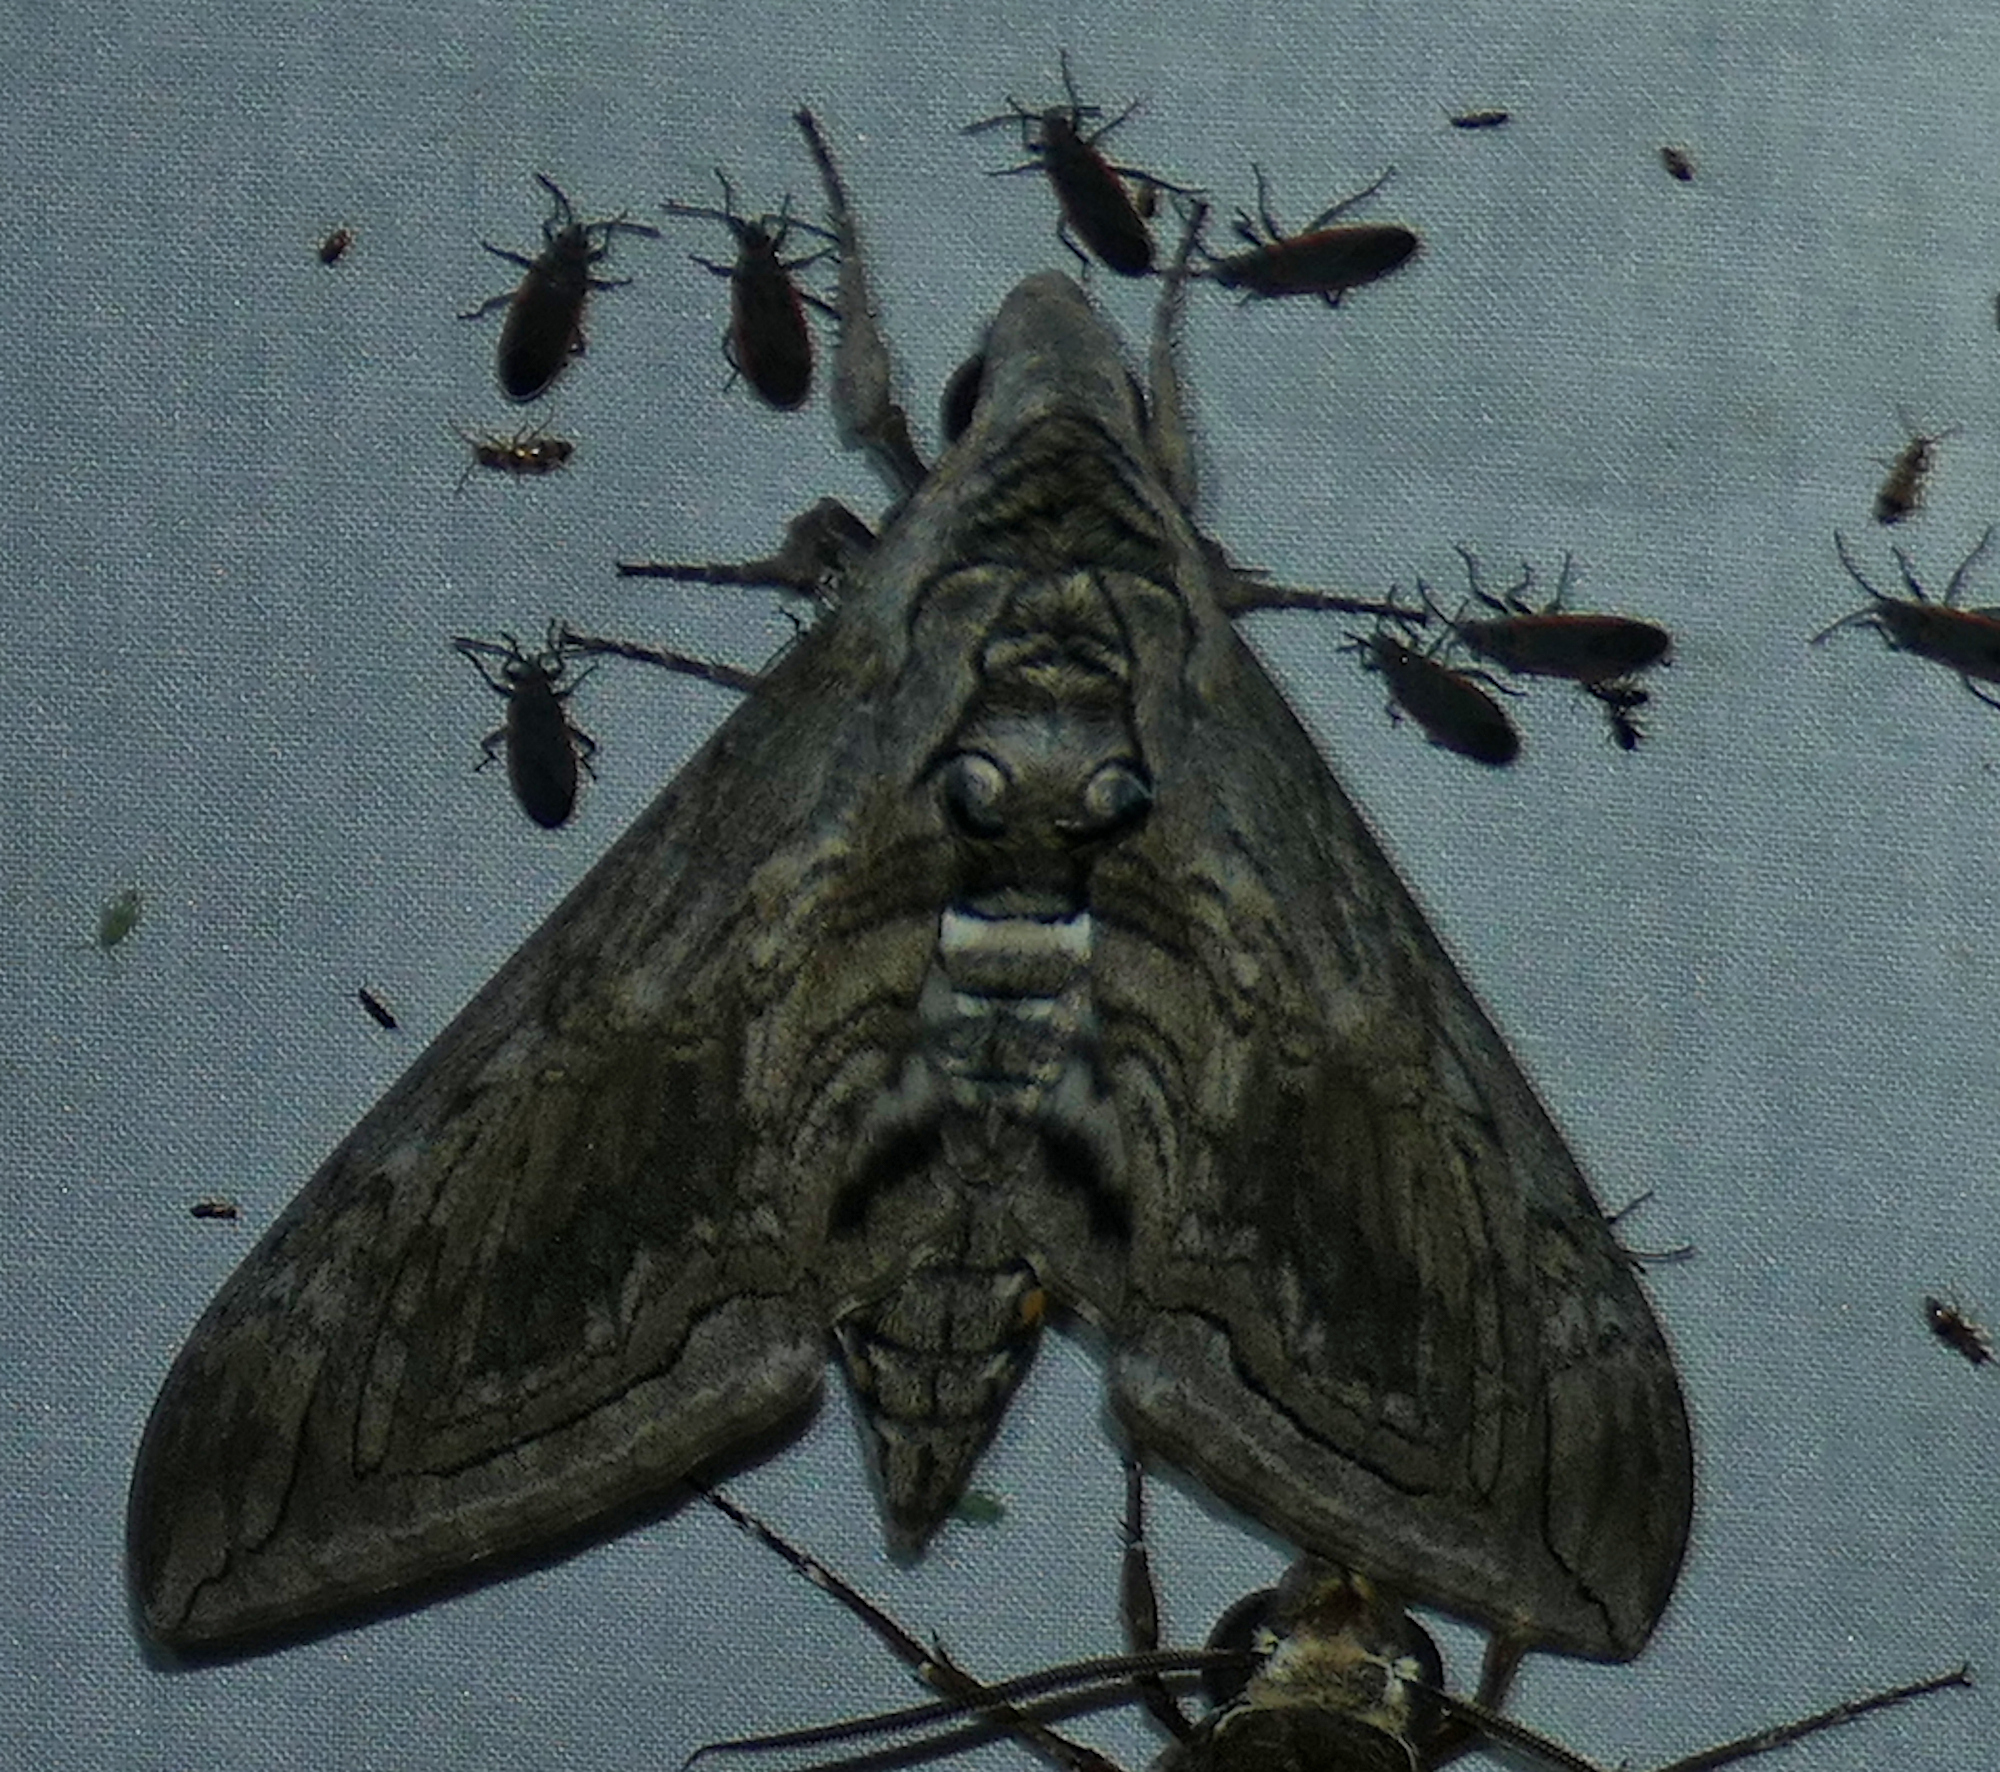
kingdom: Animalia
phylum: Arthropoda
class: Insecta
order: Lepidoptera
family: Sphingidae
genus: Manduca
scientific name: Manduca quinquemaculatus
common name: Five-spotted hawk-moth
